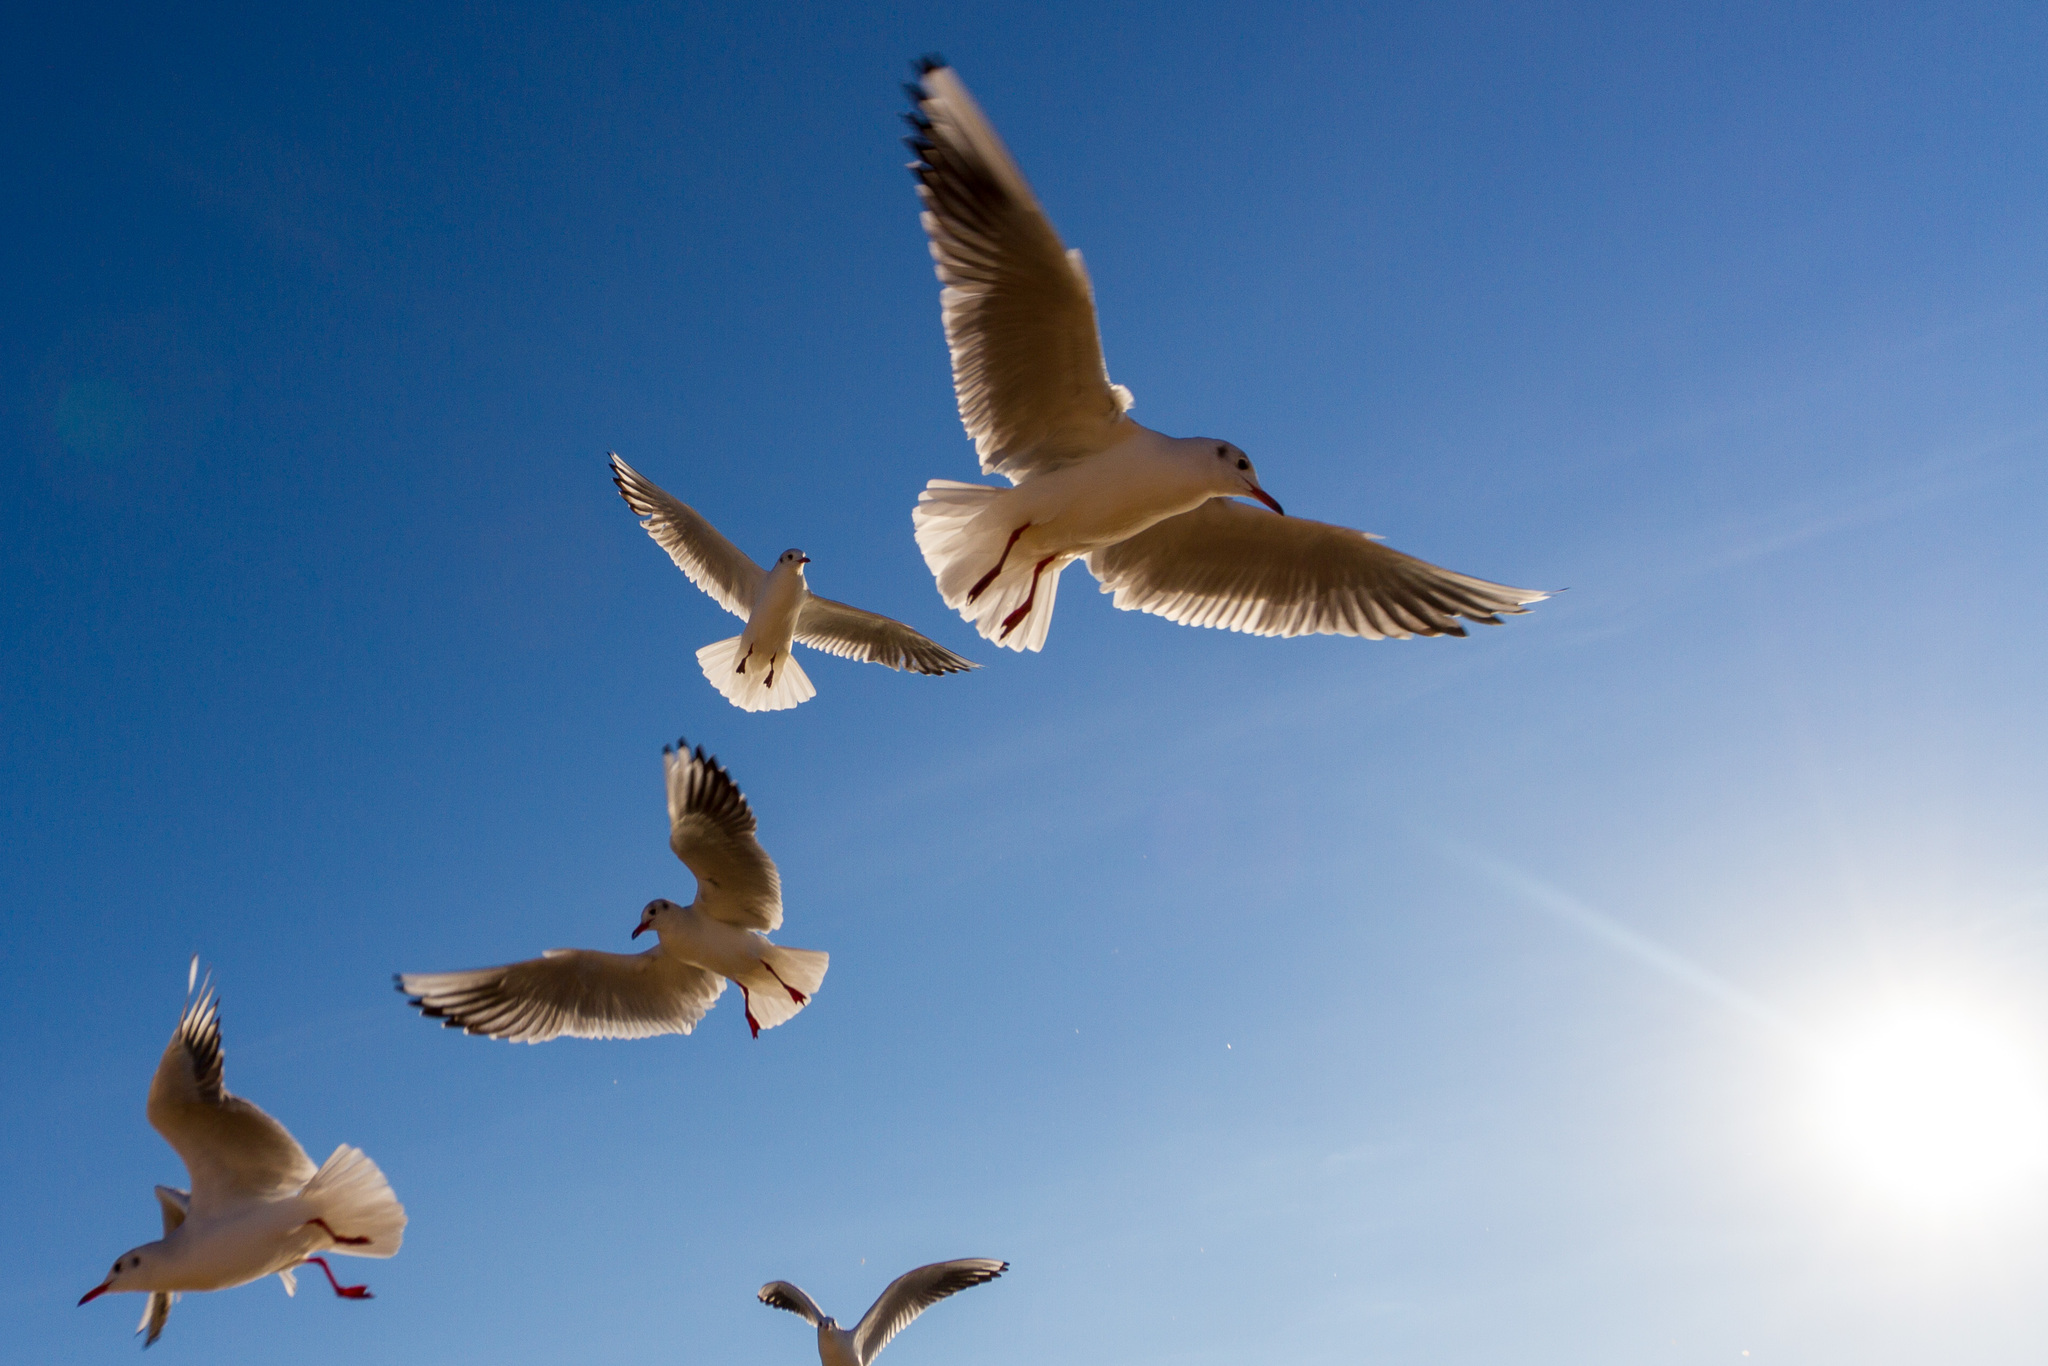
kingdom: Animalia
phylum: Chordata
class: Aves
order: Charadriiformes
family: Laridae
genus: Chroicocephalus
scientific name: Chroicocephalus ridibundus
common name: Black-headed gull
